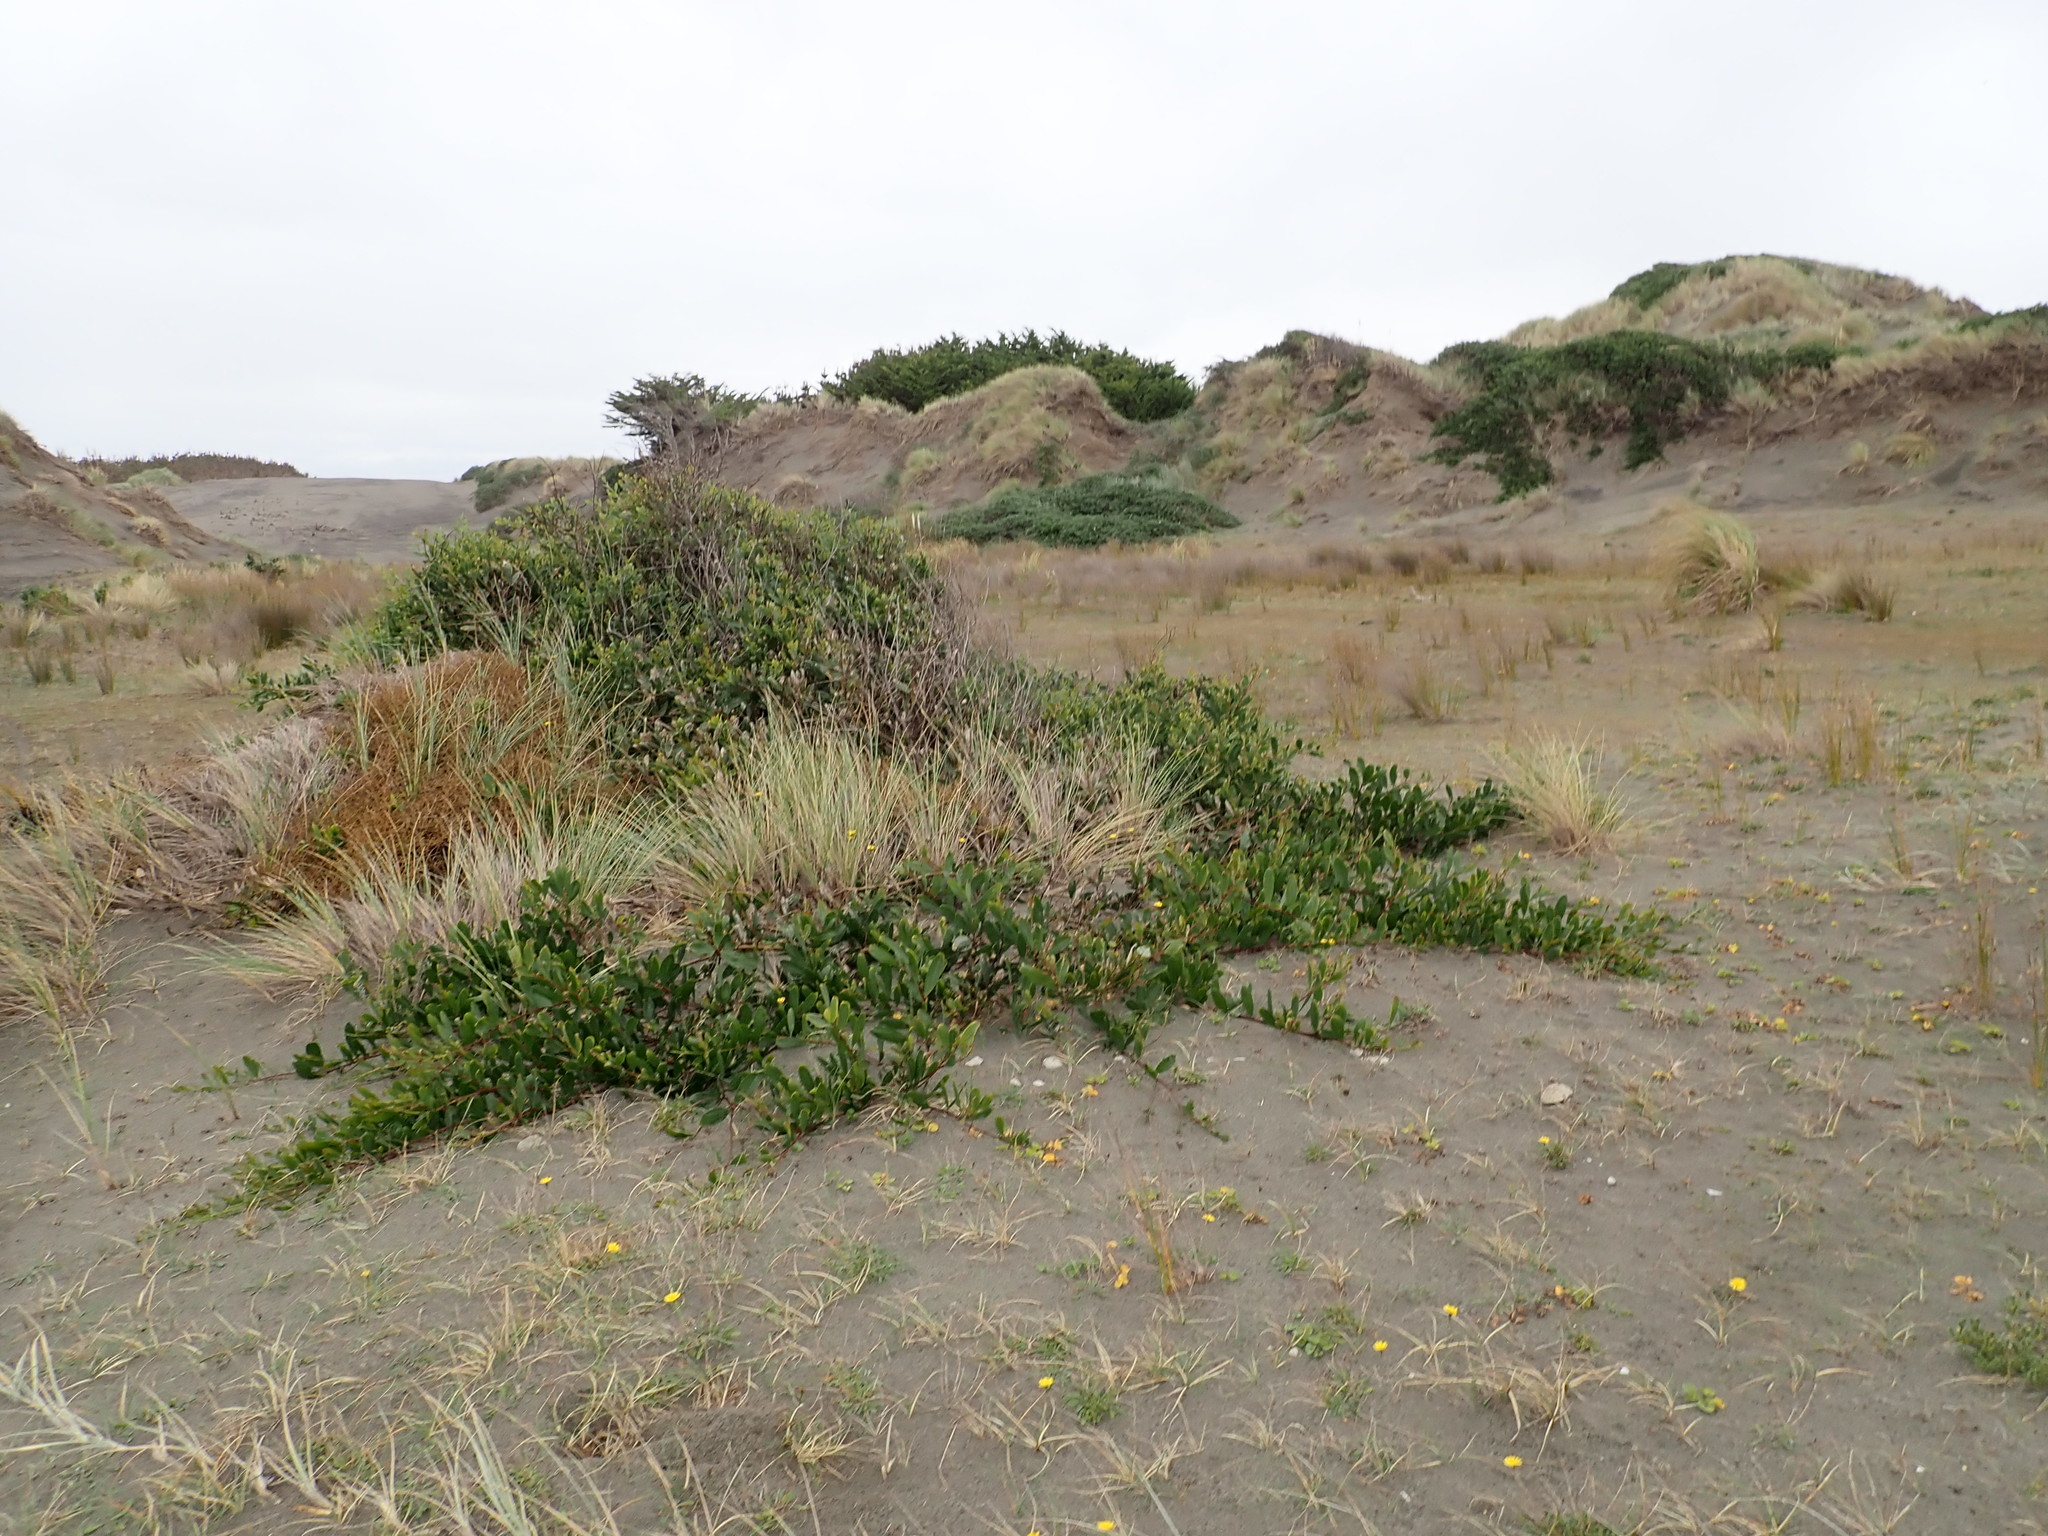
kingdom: Plantae
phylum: Tracheophyta
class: Magnoliopsida
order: Fabales
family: Fabaceae
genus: Acacia
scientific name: Acacia longifolia
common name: Sydney golden wattle
